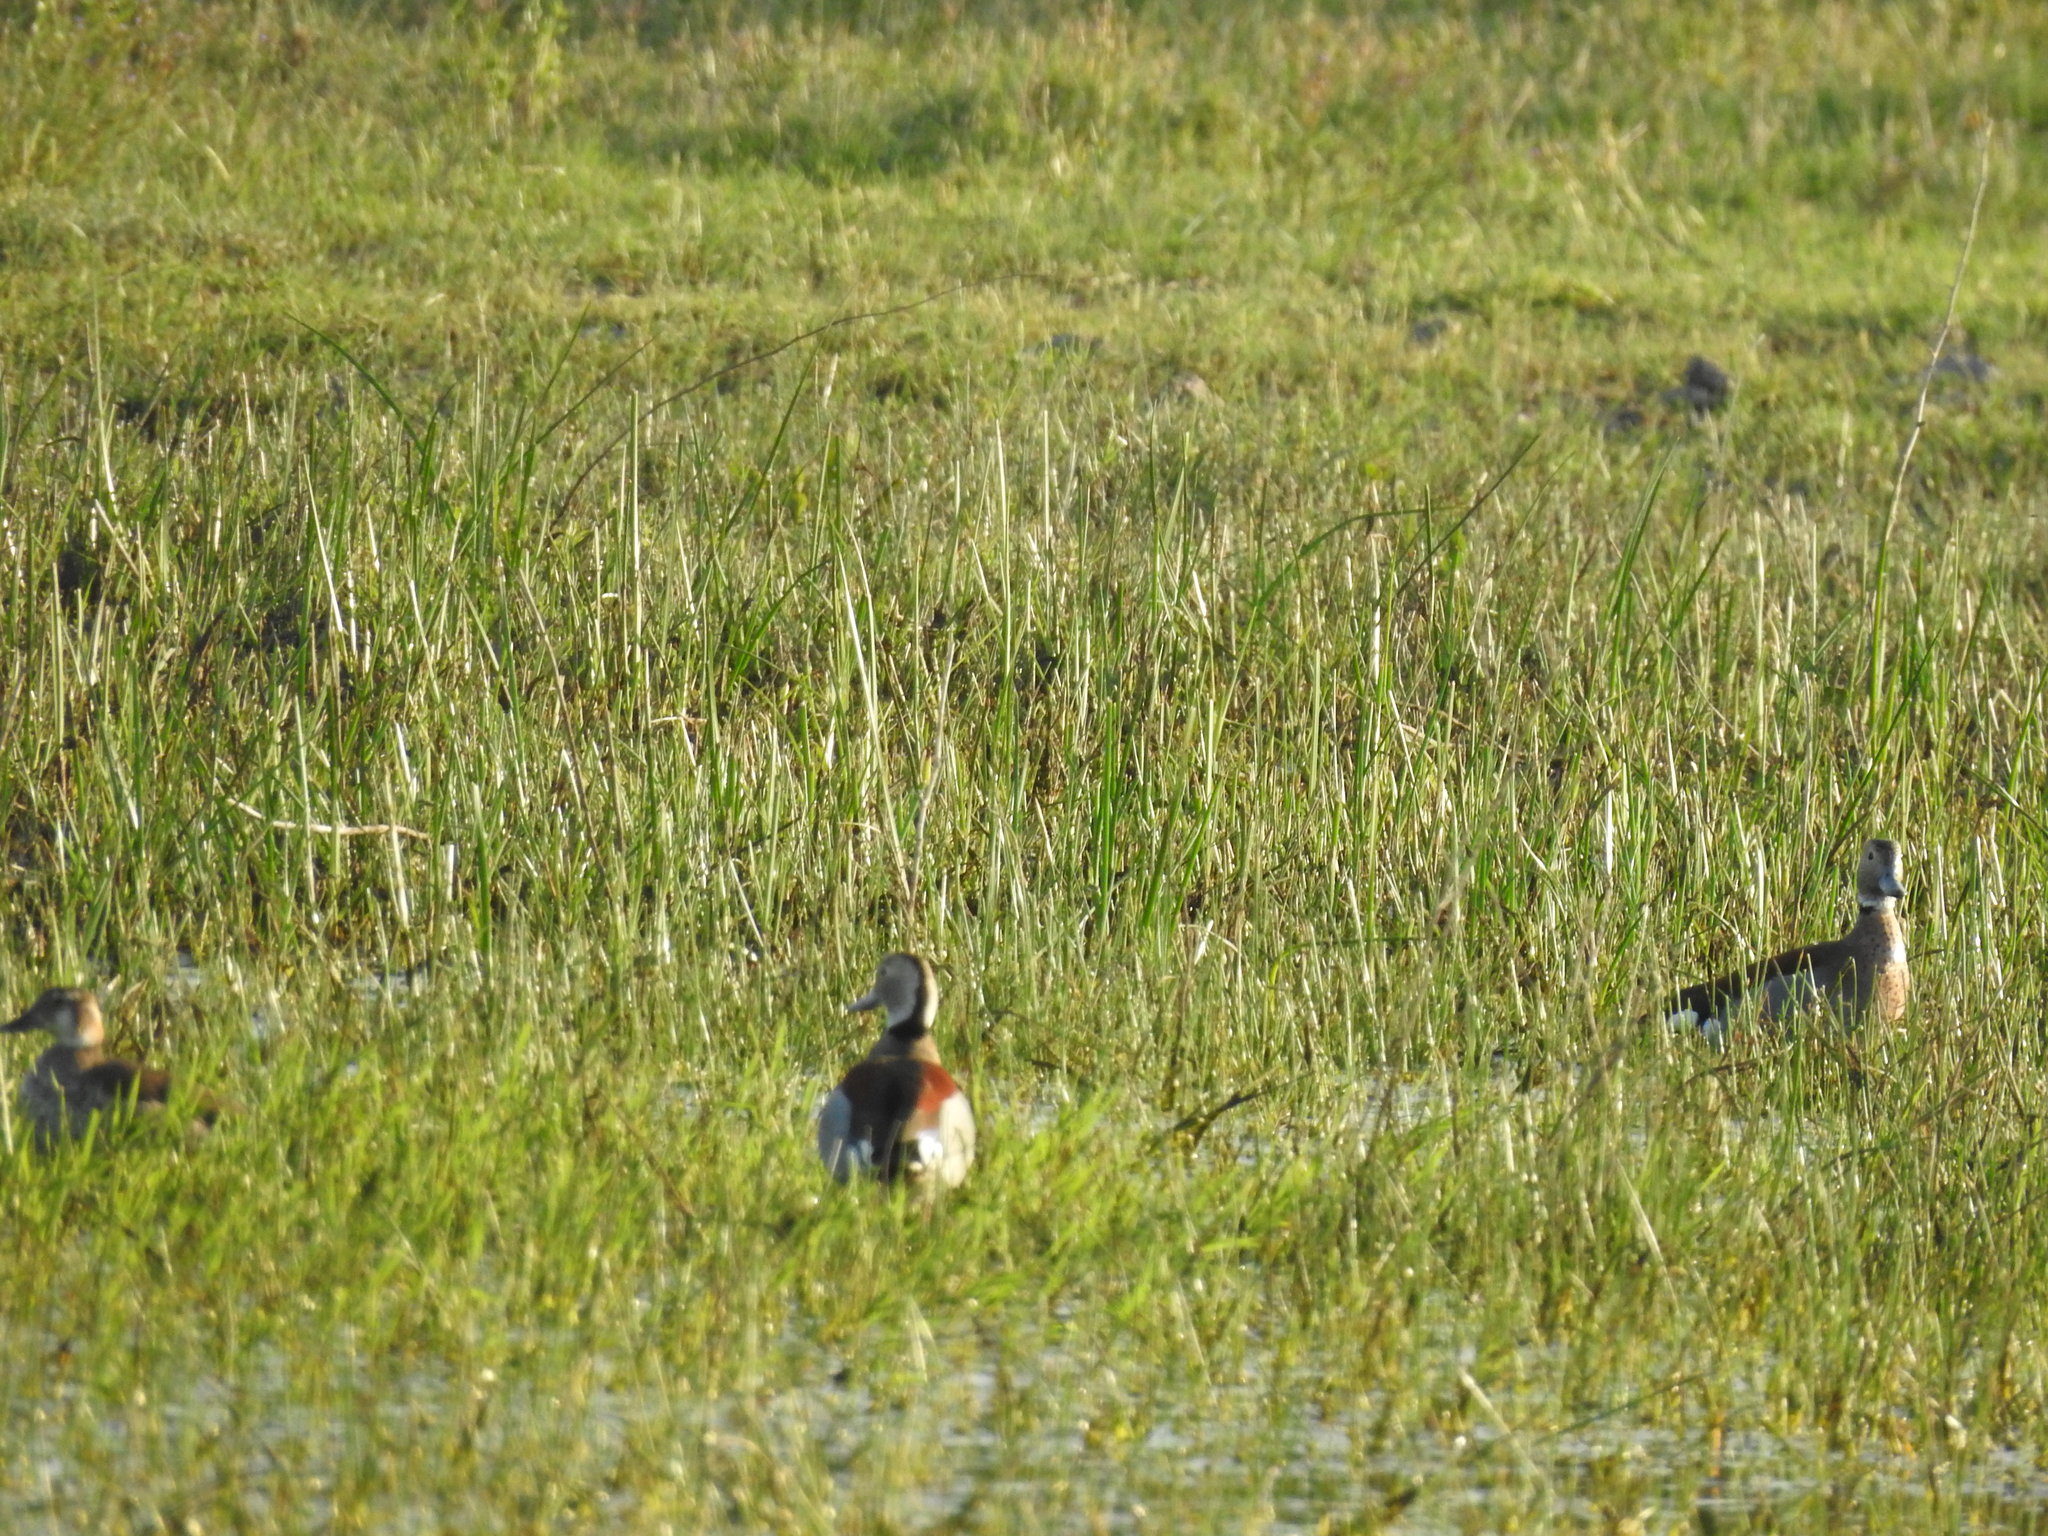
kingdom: Animalia
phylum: Chordata
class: Aves
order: Anseriformes
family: Anatidae
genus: Callonetta
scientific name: Callonetta leucophrys
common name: Ringed teal
